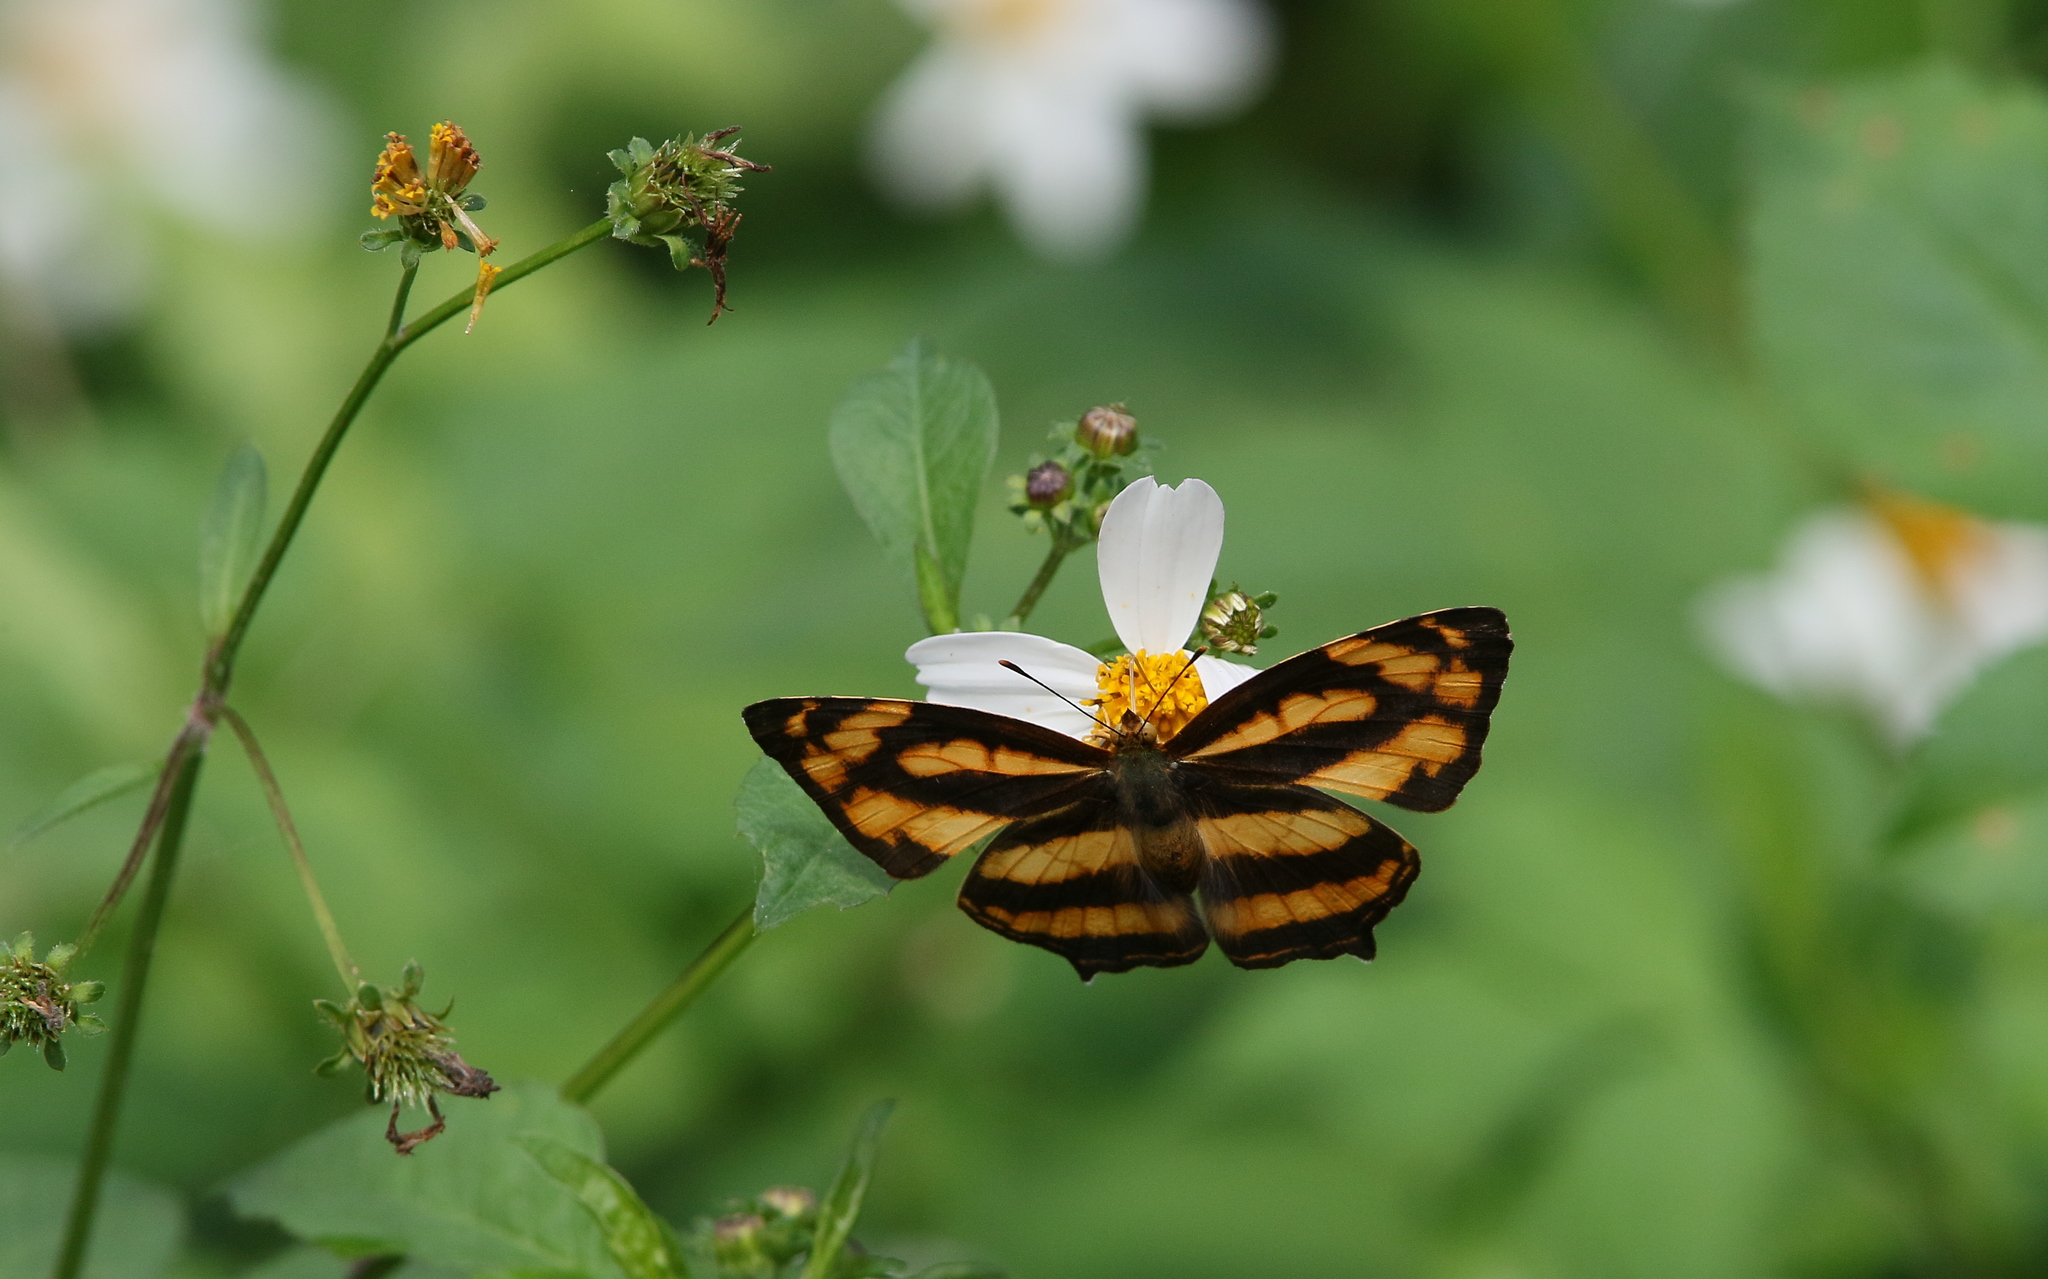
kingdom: Animalia
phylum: Arthropoda
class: Insecta
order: Lepidoptera
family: Nymphalidae
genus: Symbrenthia
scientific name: Symbrenthia hypselis
